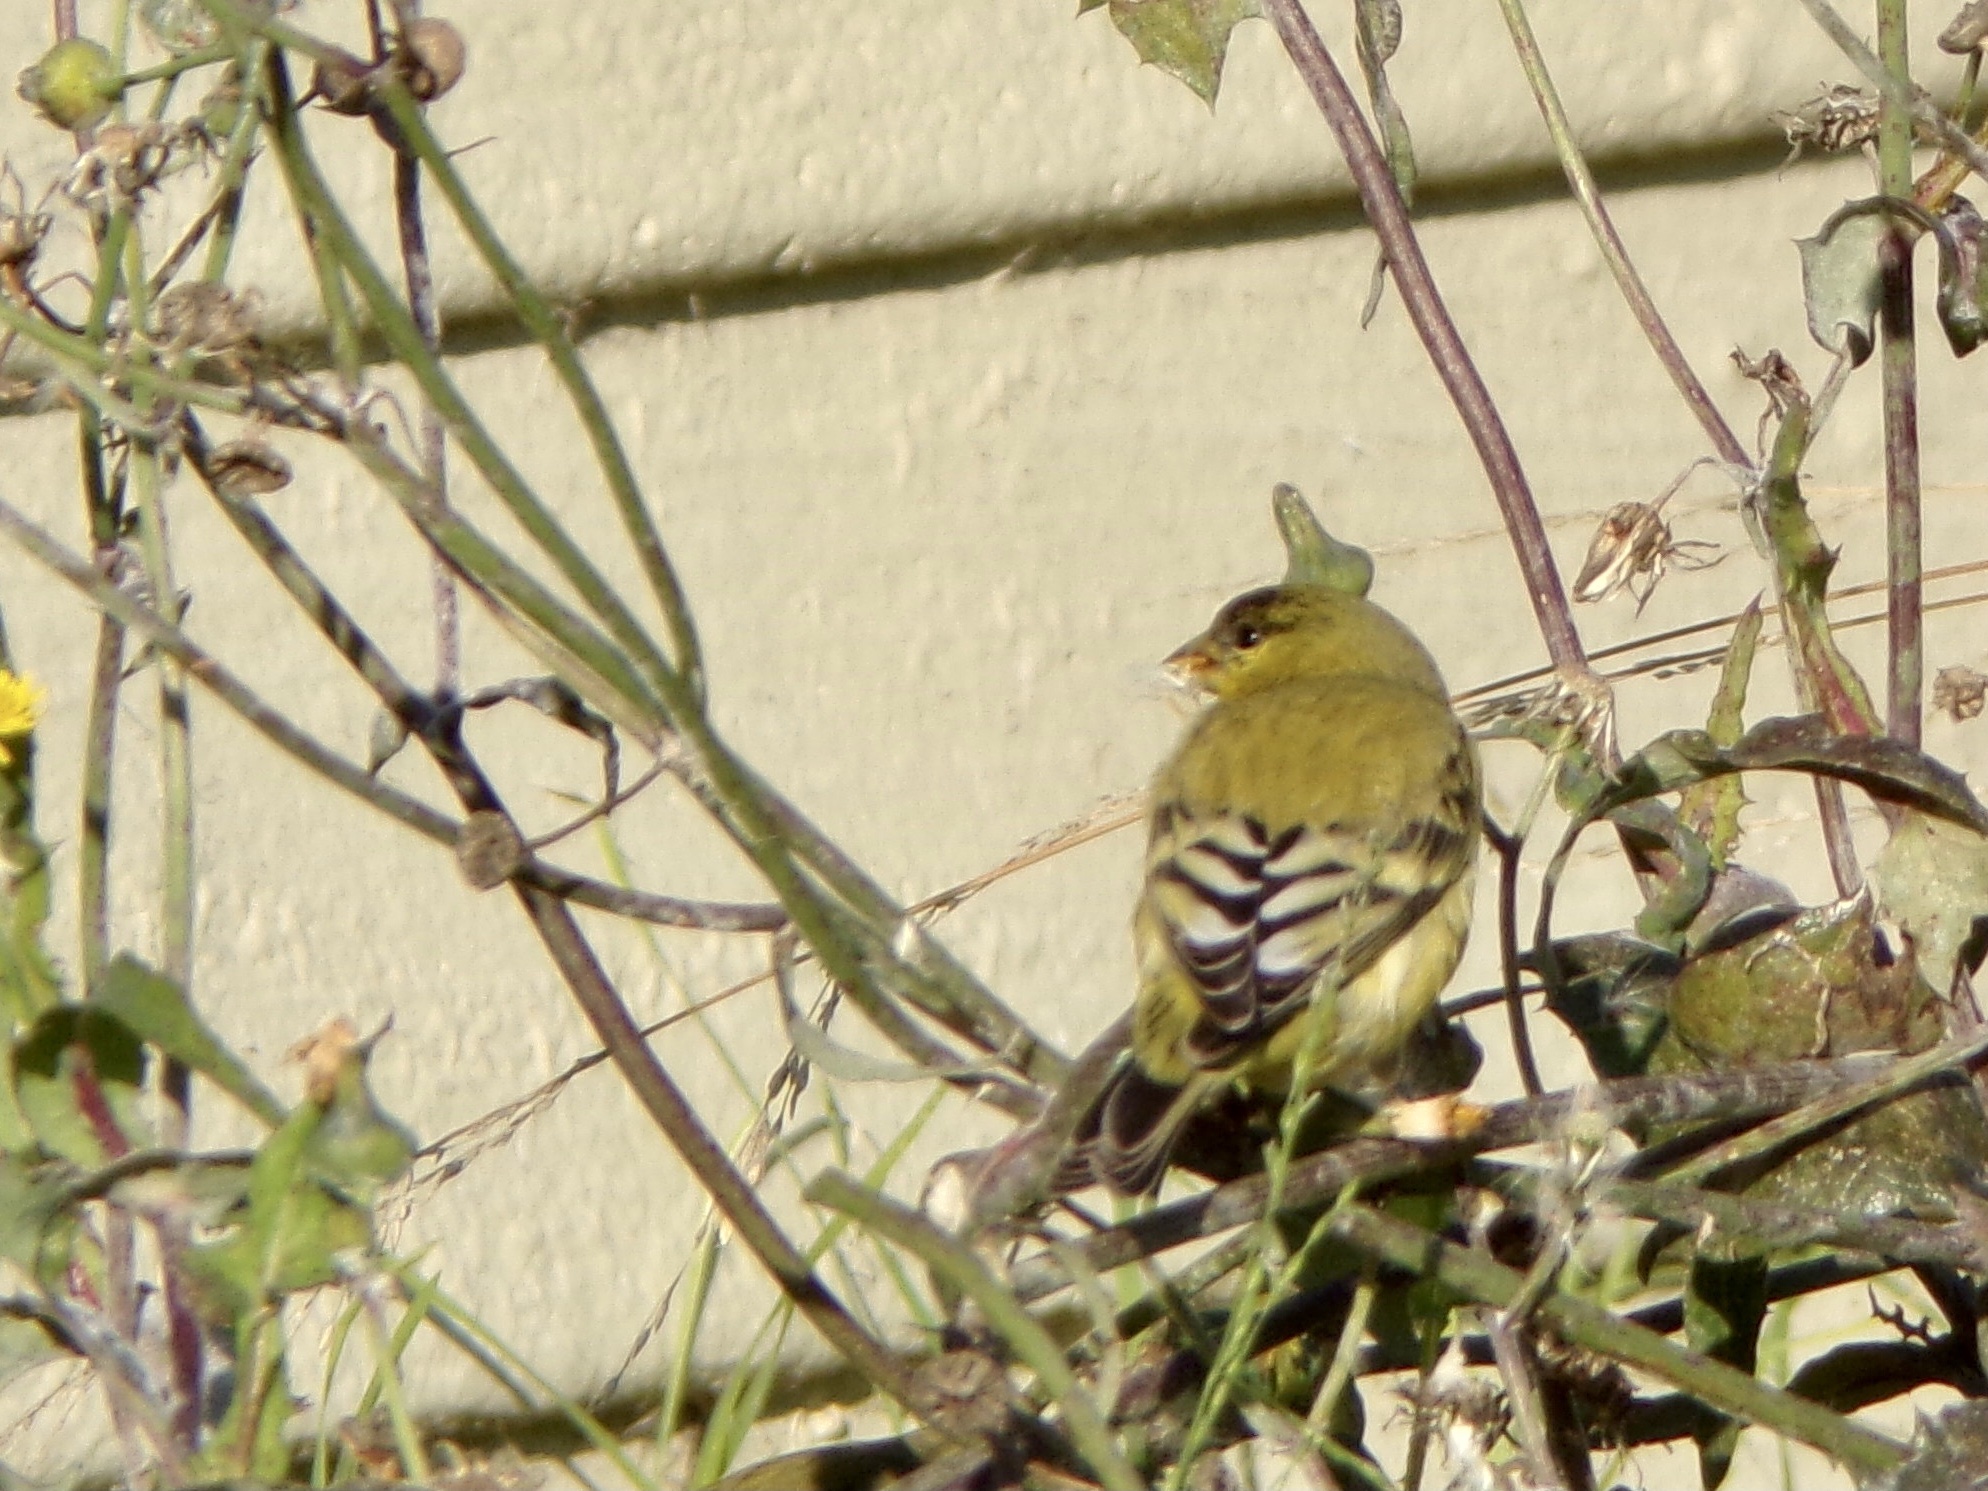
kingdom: Animalia
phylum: Chordata
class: Aves
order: Passeriformes
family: Fringillidae
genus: Spinus
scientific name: Spinus psaltria
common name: Lesser goldfinch
